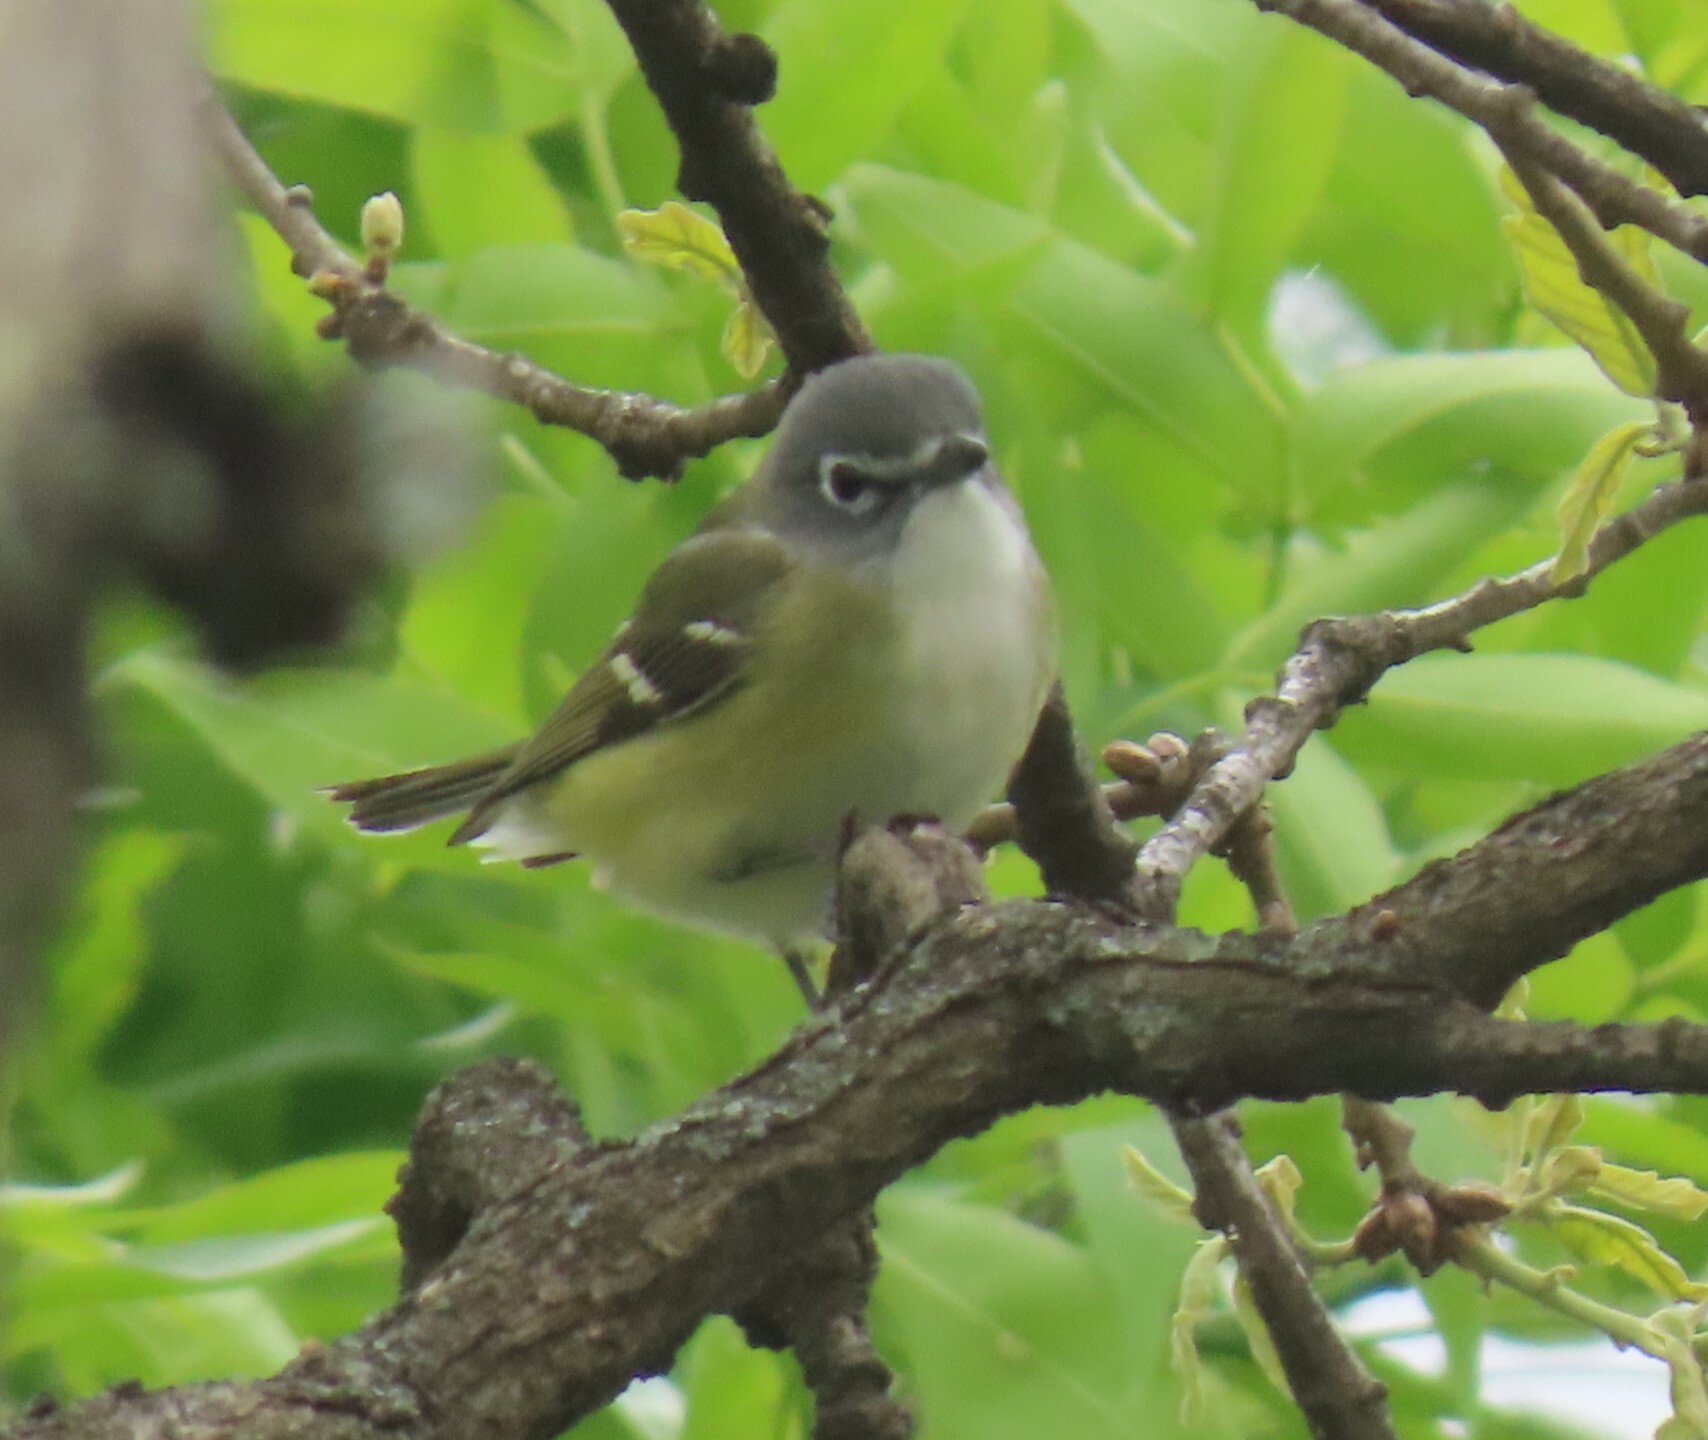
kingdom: Animalia
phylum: Chordata
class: Aves
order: Passeriformes
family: Vireonidae
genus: Vireo
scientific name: Vireo solitarius
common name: Blue-headed vireo
